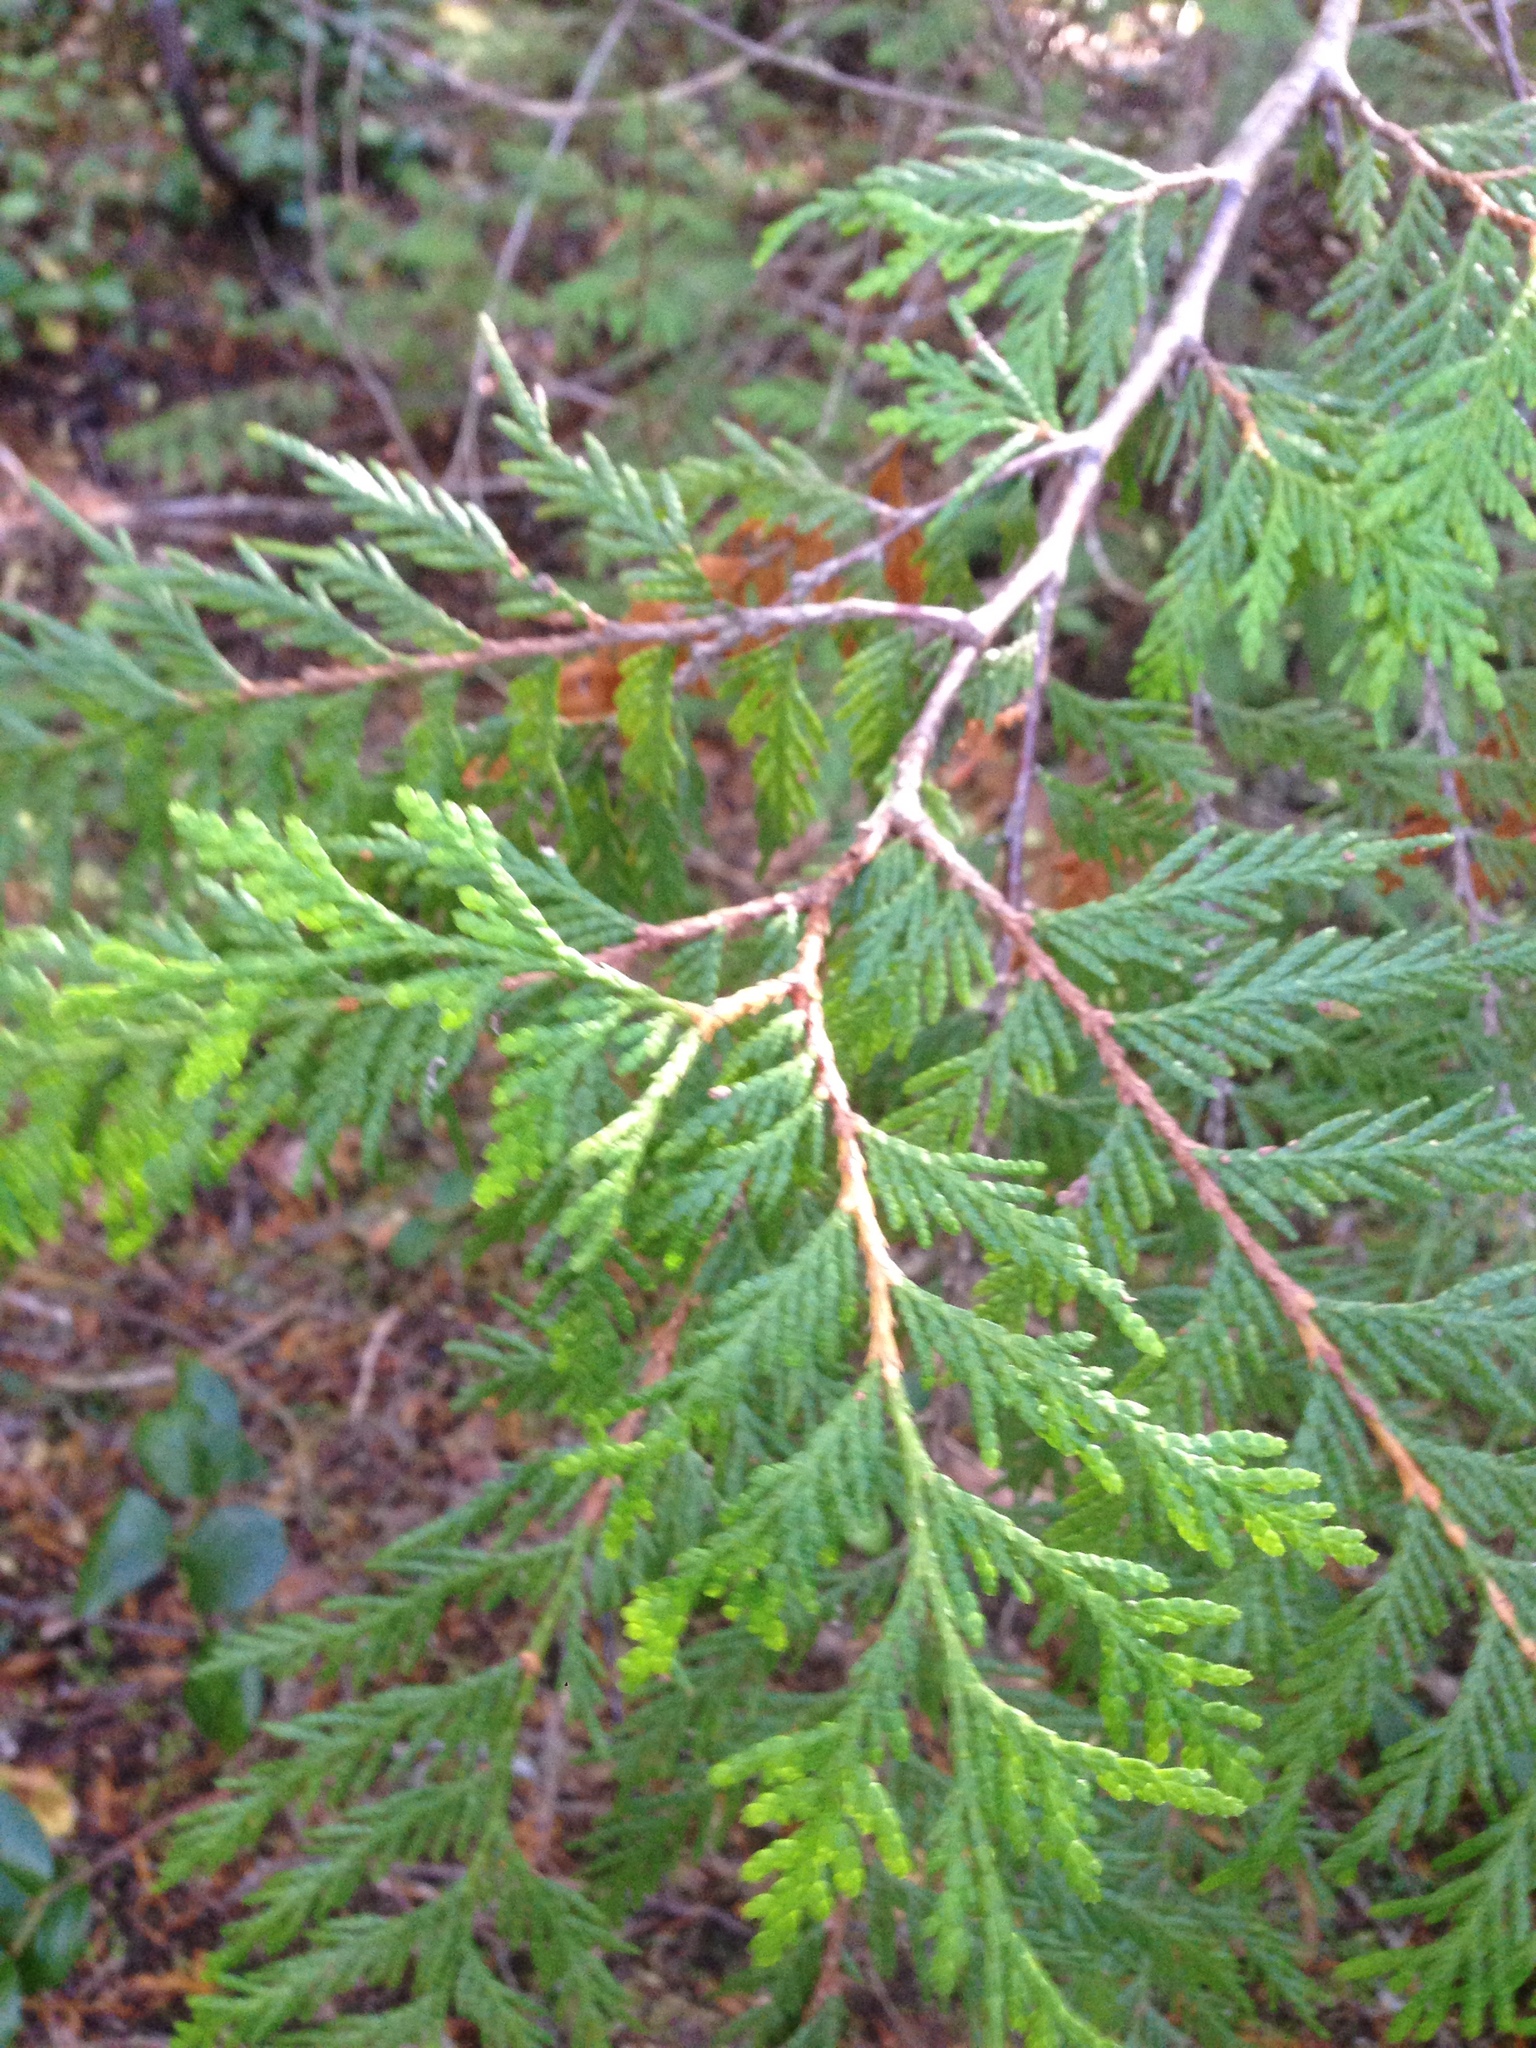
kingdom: Plantae
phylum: Tracheophyta
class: Pinopsida
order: Pinales
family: Cupressaceae
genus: Thuja
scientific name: Thuja plicata
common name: Western red-cedar
